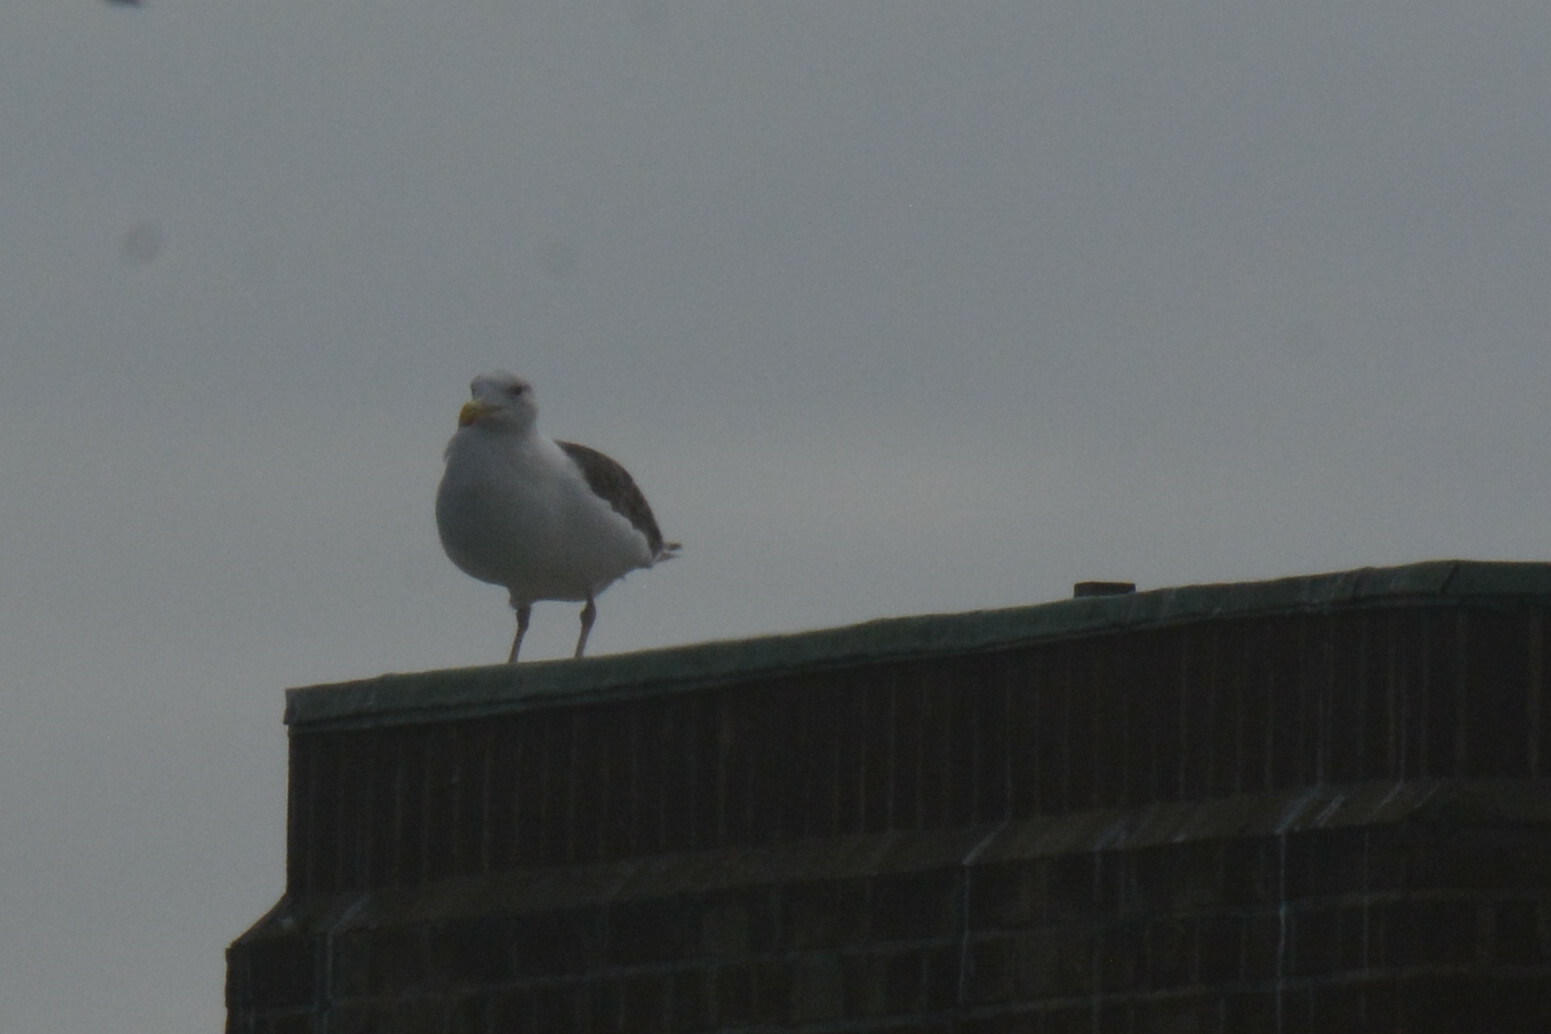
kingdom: Animalia
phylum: Chordata
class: Aves
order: Charadriiformes
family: Laridae
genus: Larus
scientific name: Larus marinus
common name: Great black-backed gull
